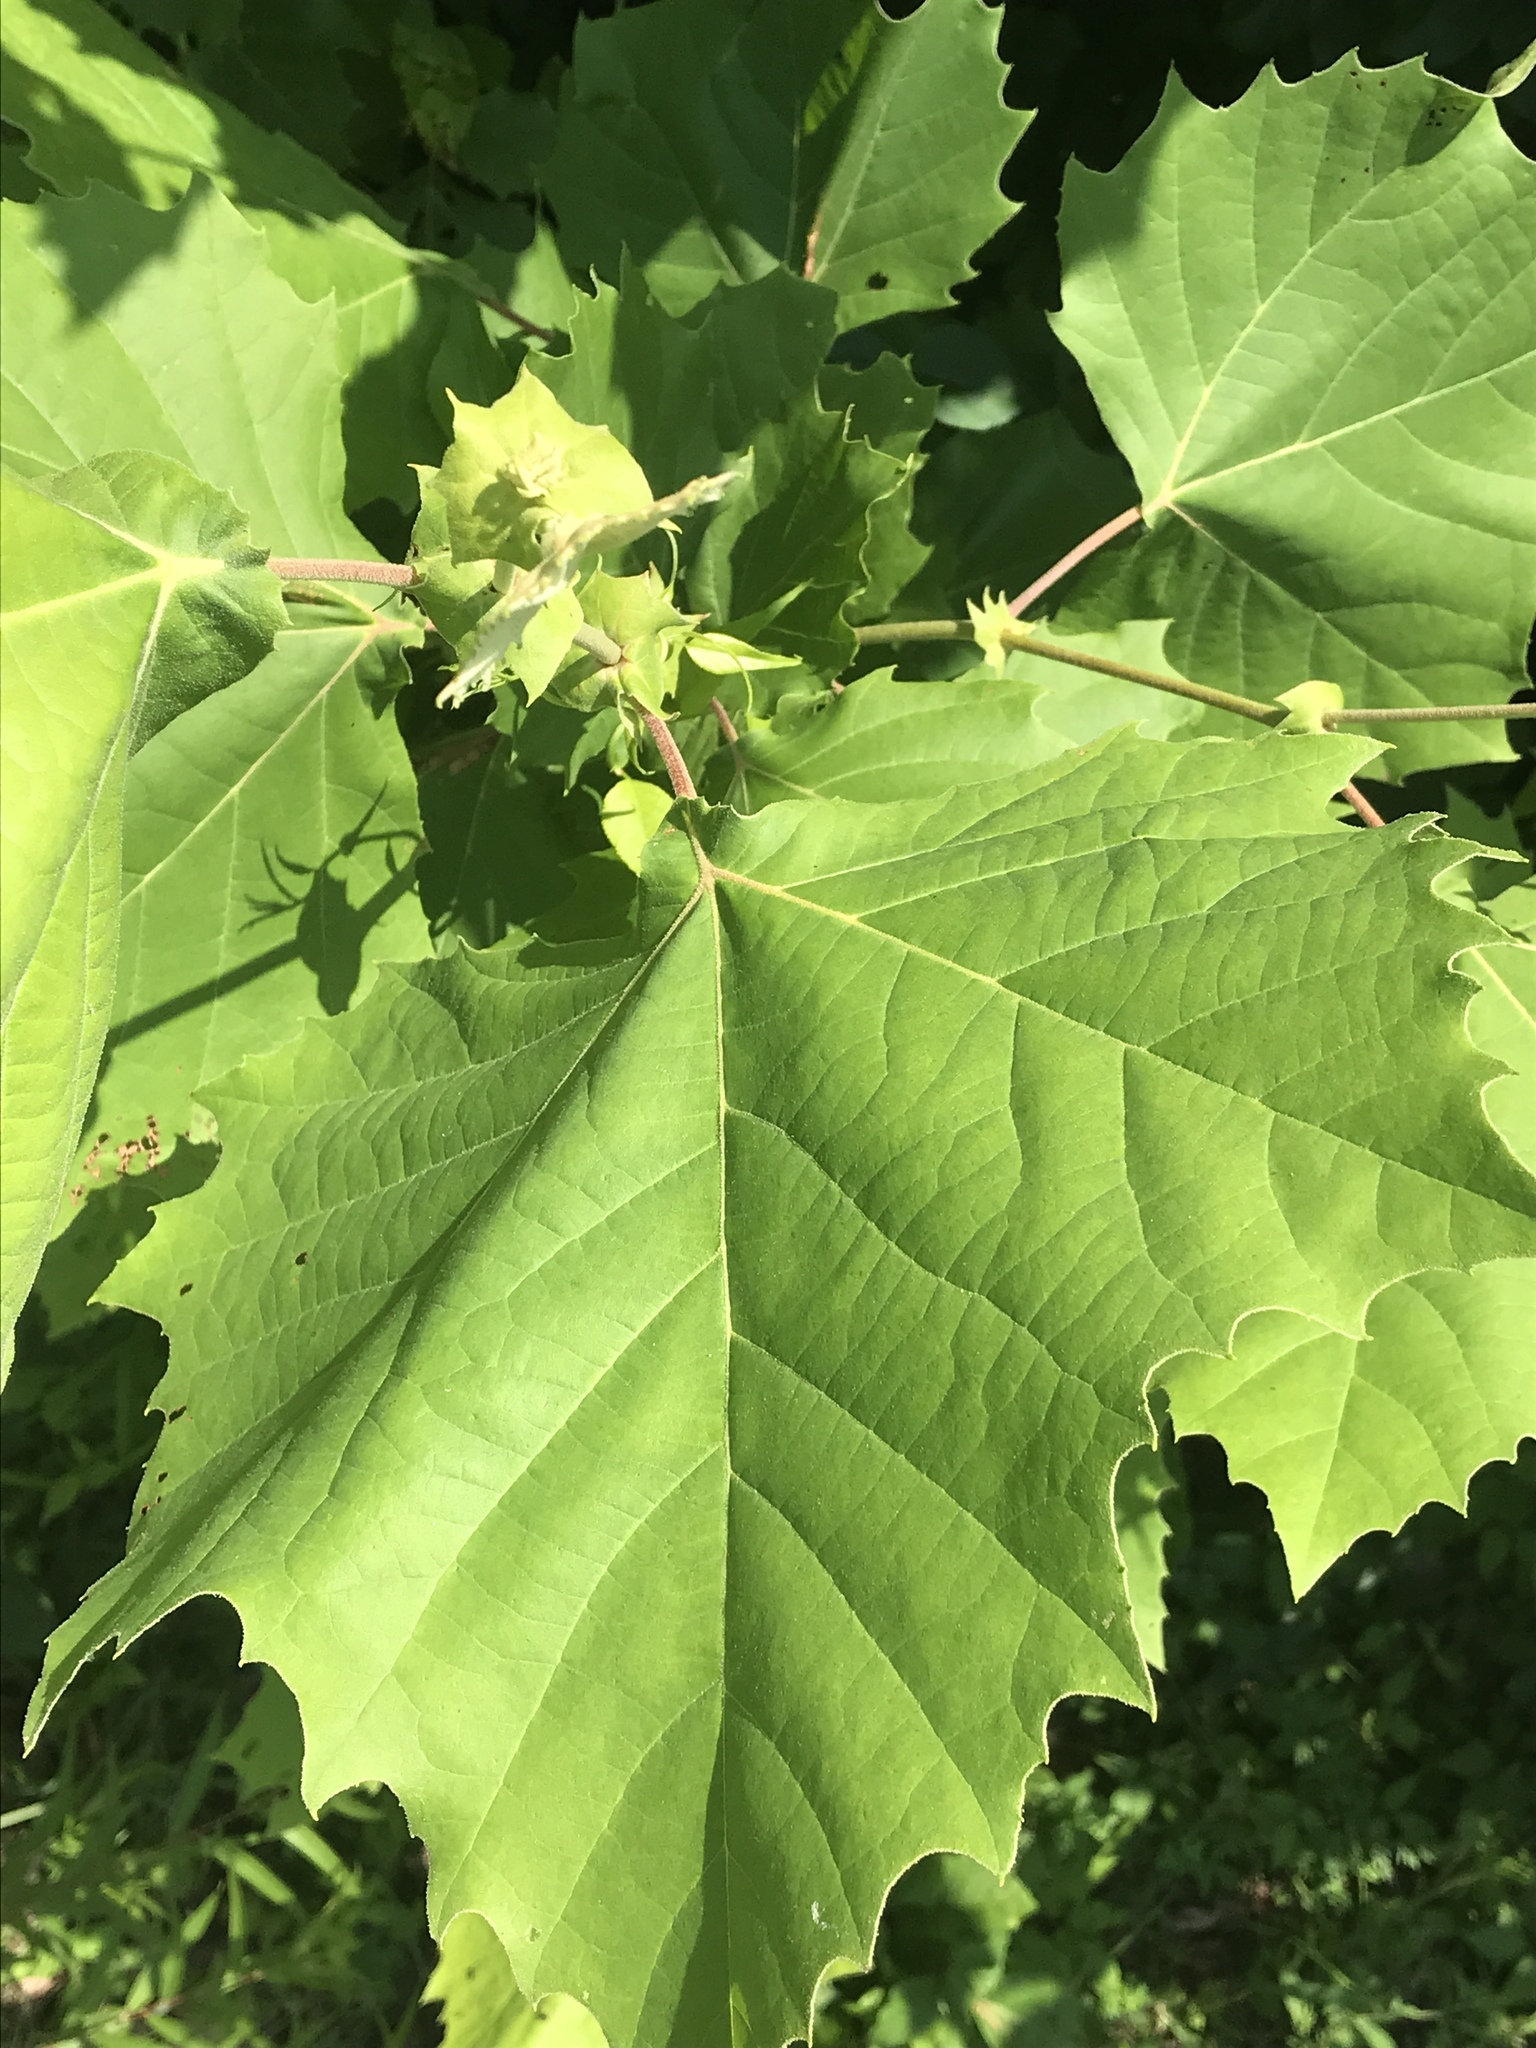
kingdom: Plantae
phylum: Tracheophyta
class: Magnoliopsida
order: Proteales
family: Platanaceae
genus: Platanus
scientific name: Platanus occidentalis
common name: American sycamore
